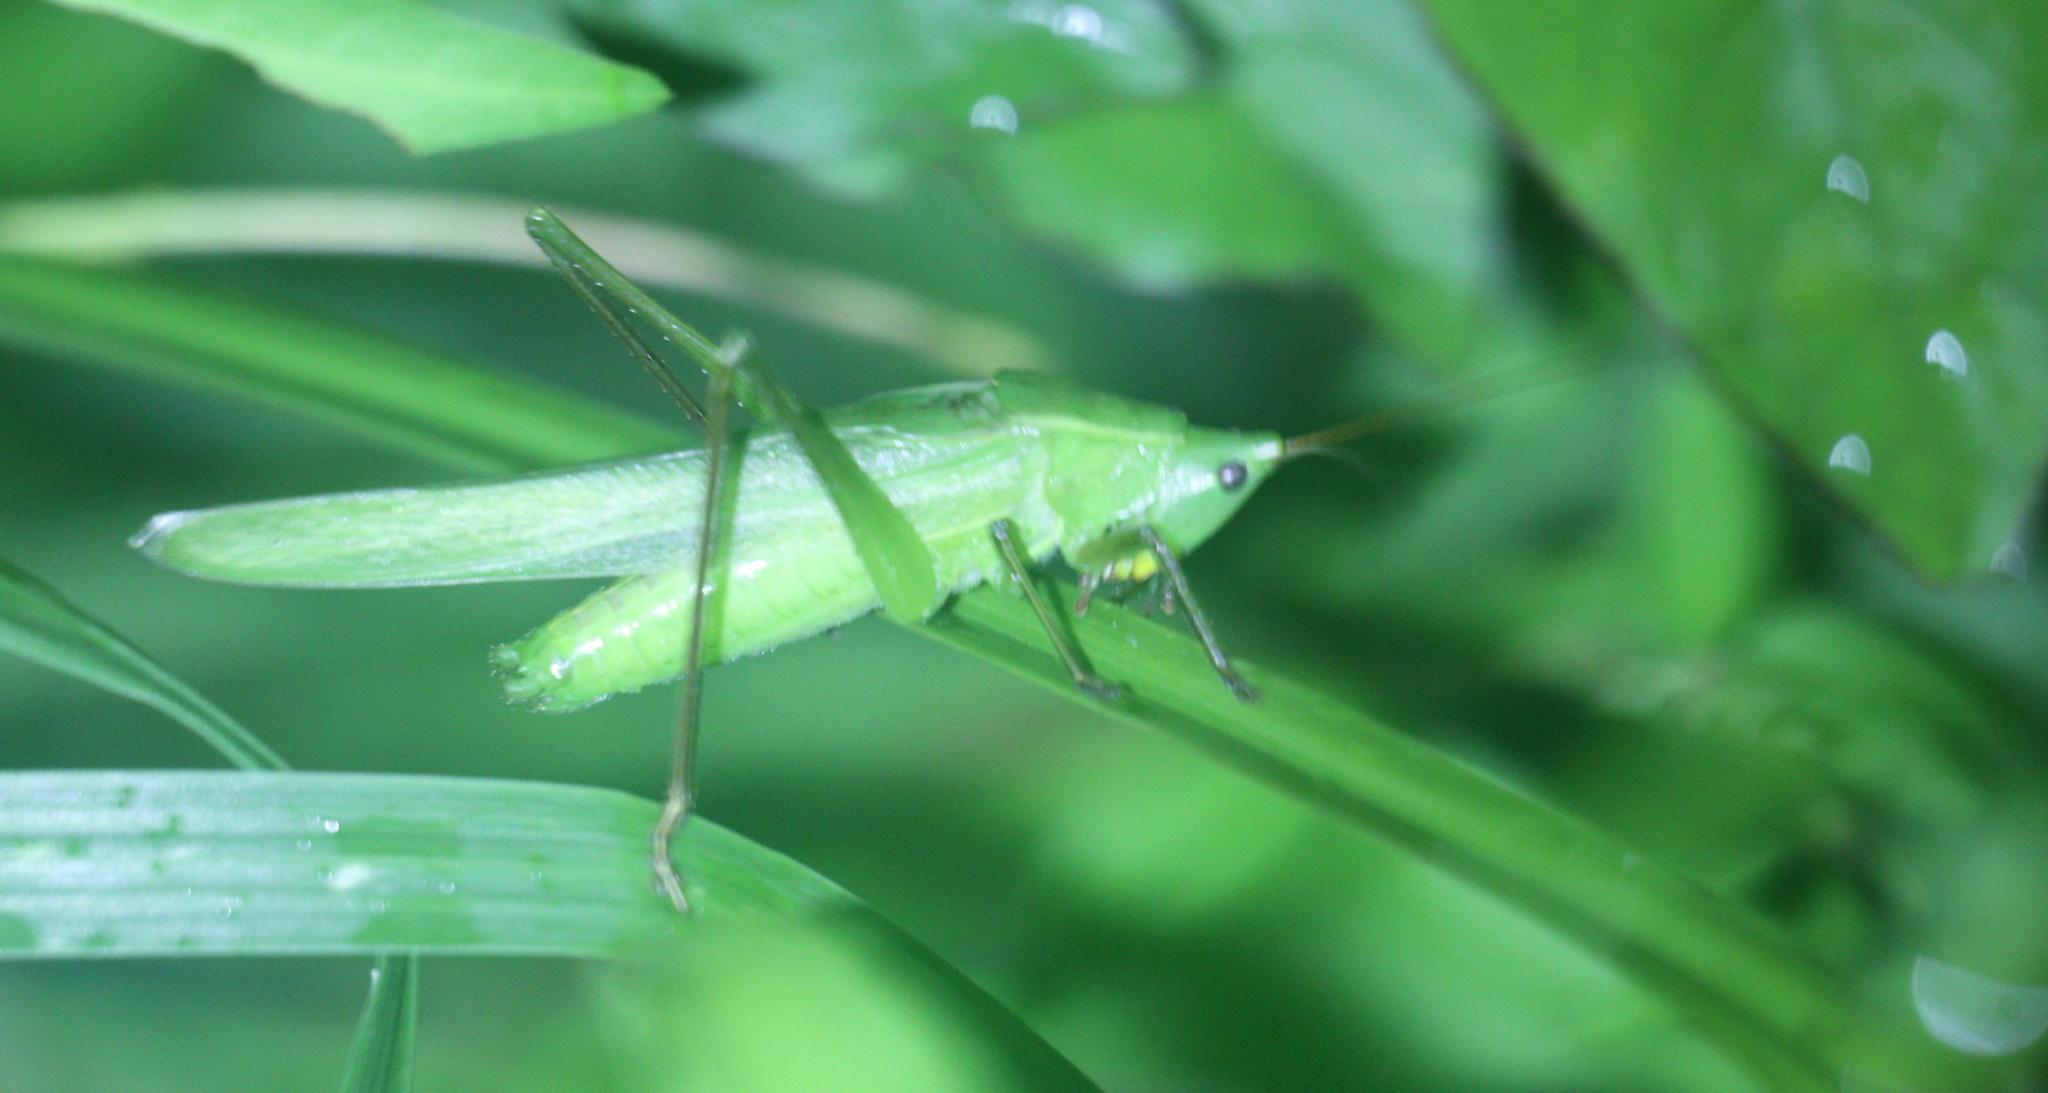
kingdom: Animalia
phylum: Arthropoda
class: Insecta
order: Orthoptera
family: Tettigoniidae
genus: Ruspolia
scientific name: Ruspolia nitidula
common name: Large conehead
